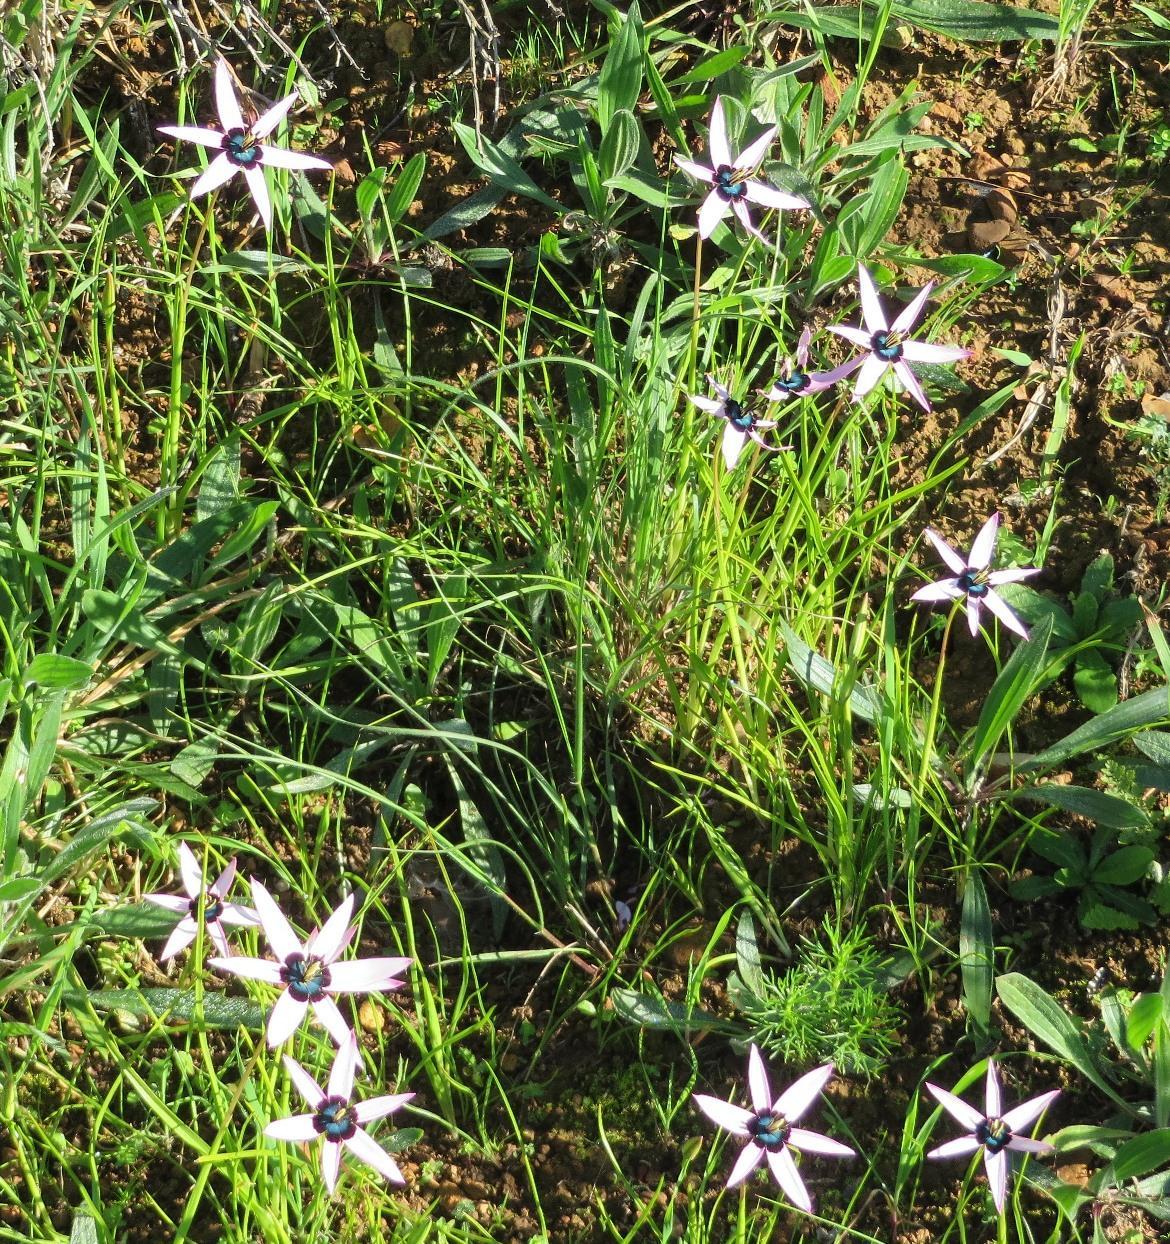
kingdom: Plantae
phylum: Tracheophyta
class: Liliopsida
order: Asparagales
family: Hypoxidaceae
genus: Pauridia
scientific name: Pauridia capensis
